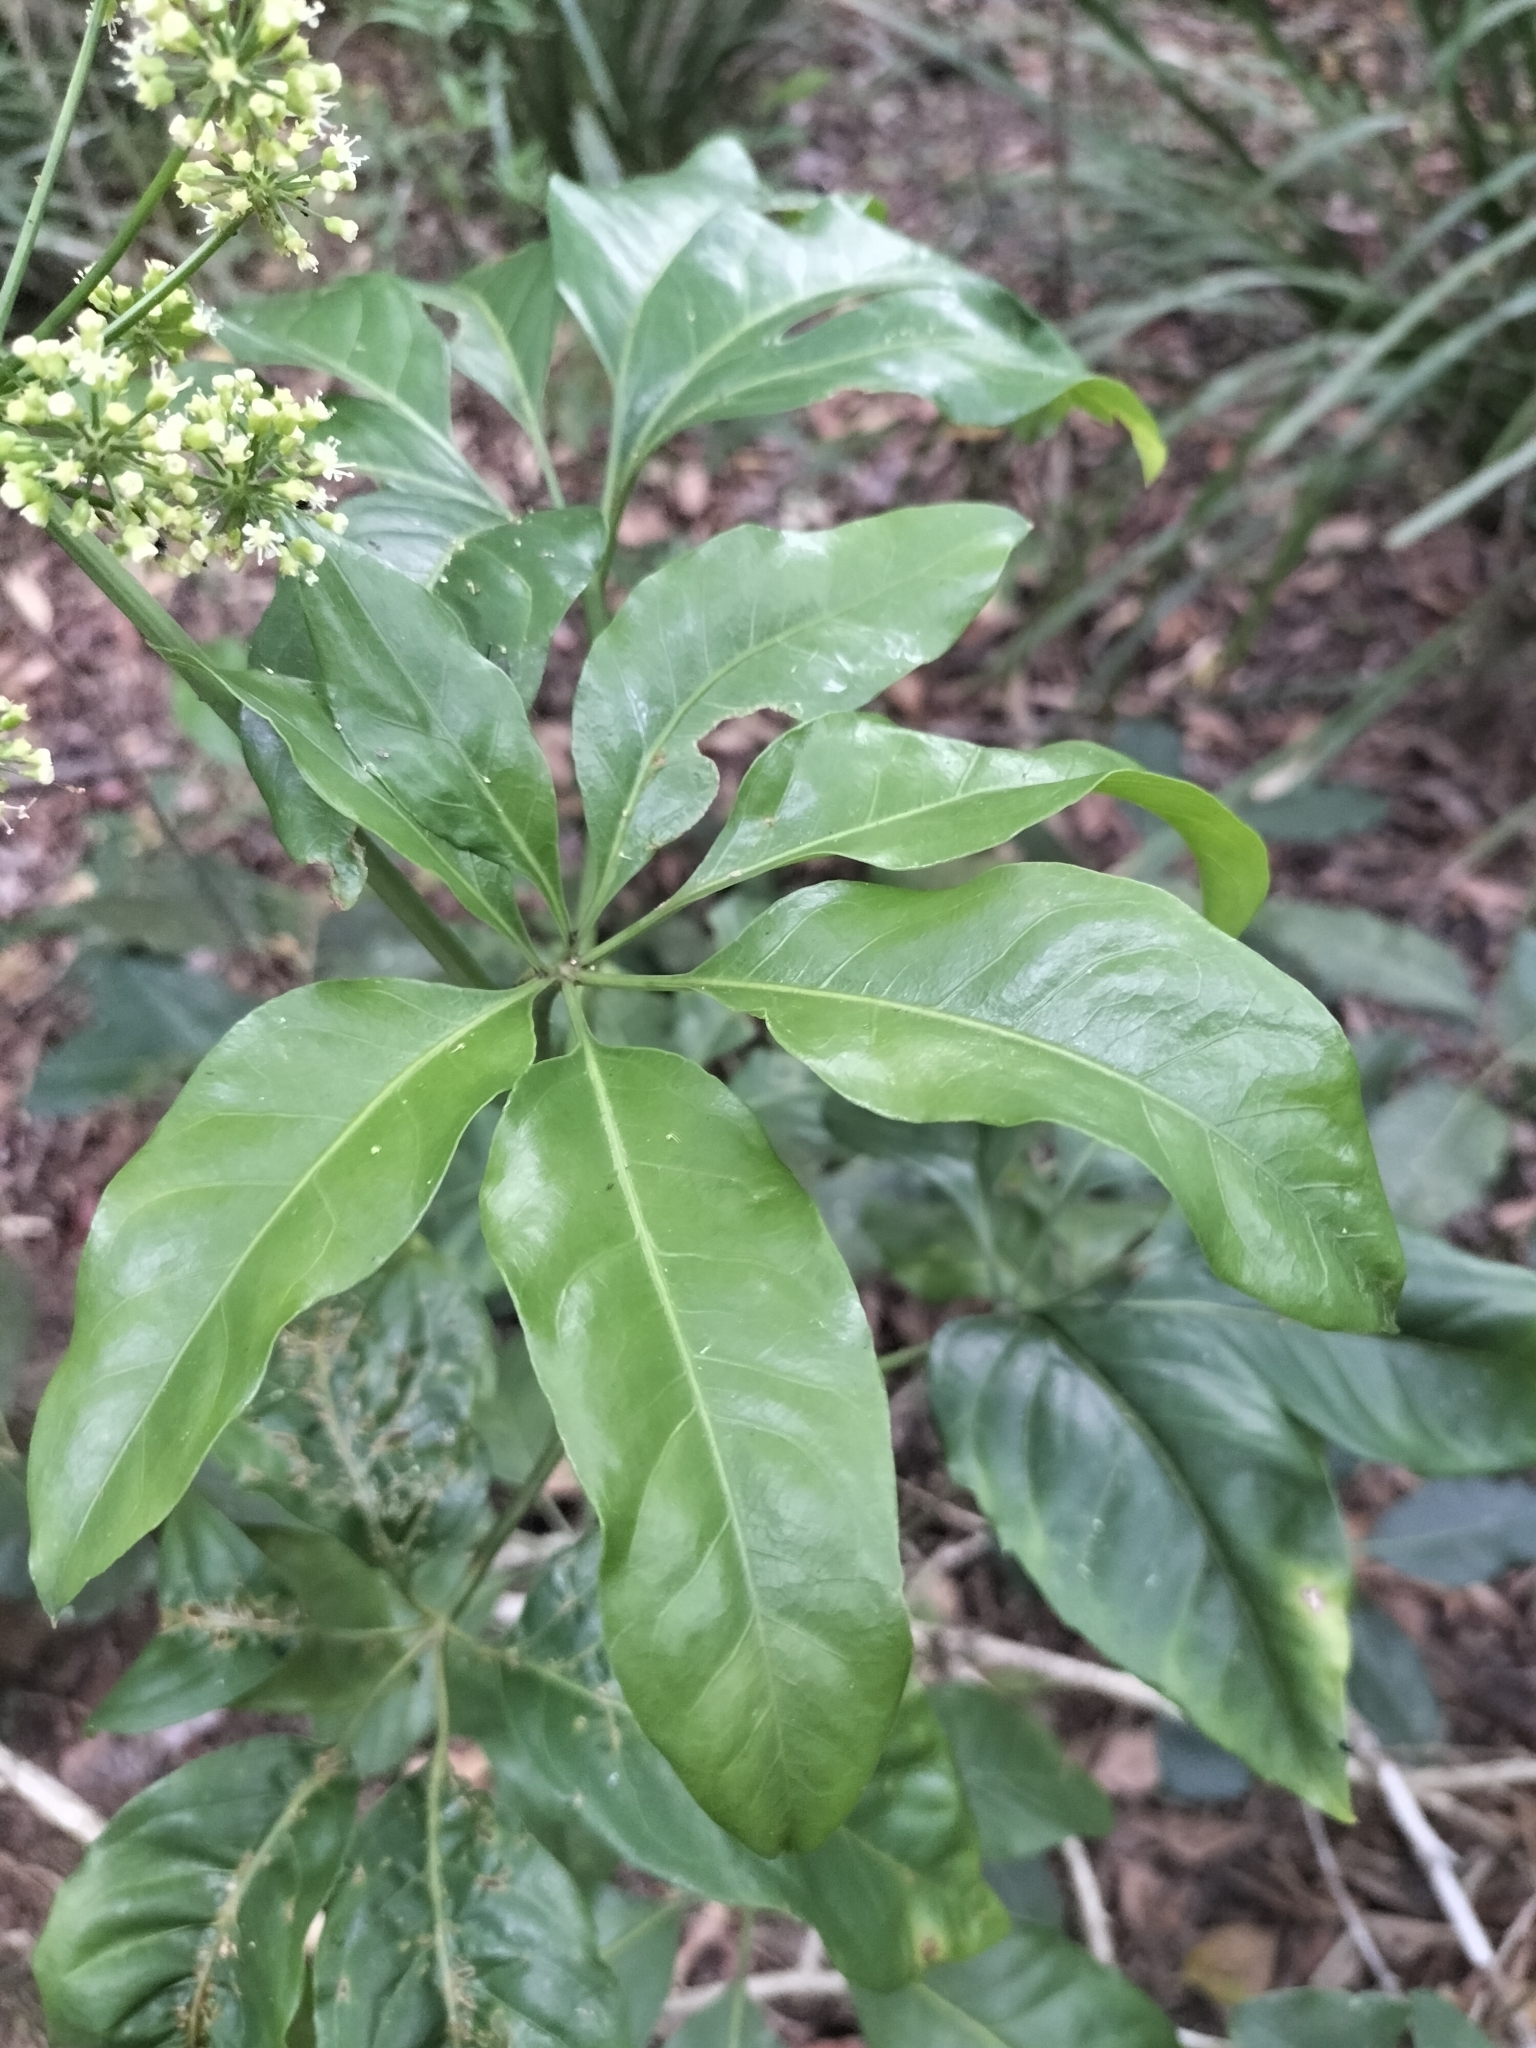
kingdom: Plantae
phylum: Tracheophyta
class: Magnoliopsida
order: Apiales
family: Apiaceae
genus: Mackinlaya
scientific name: Mackinlaya macrosciadea
